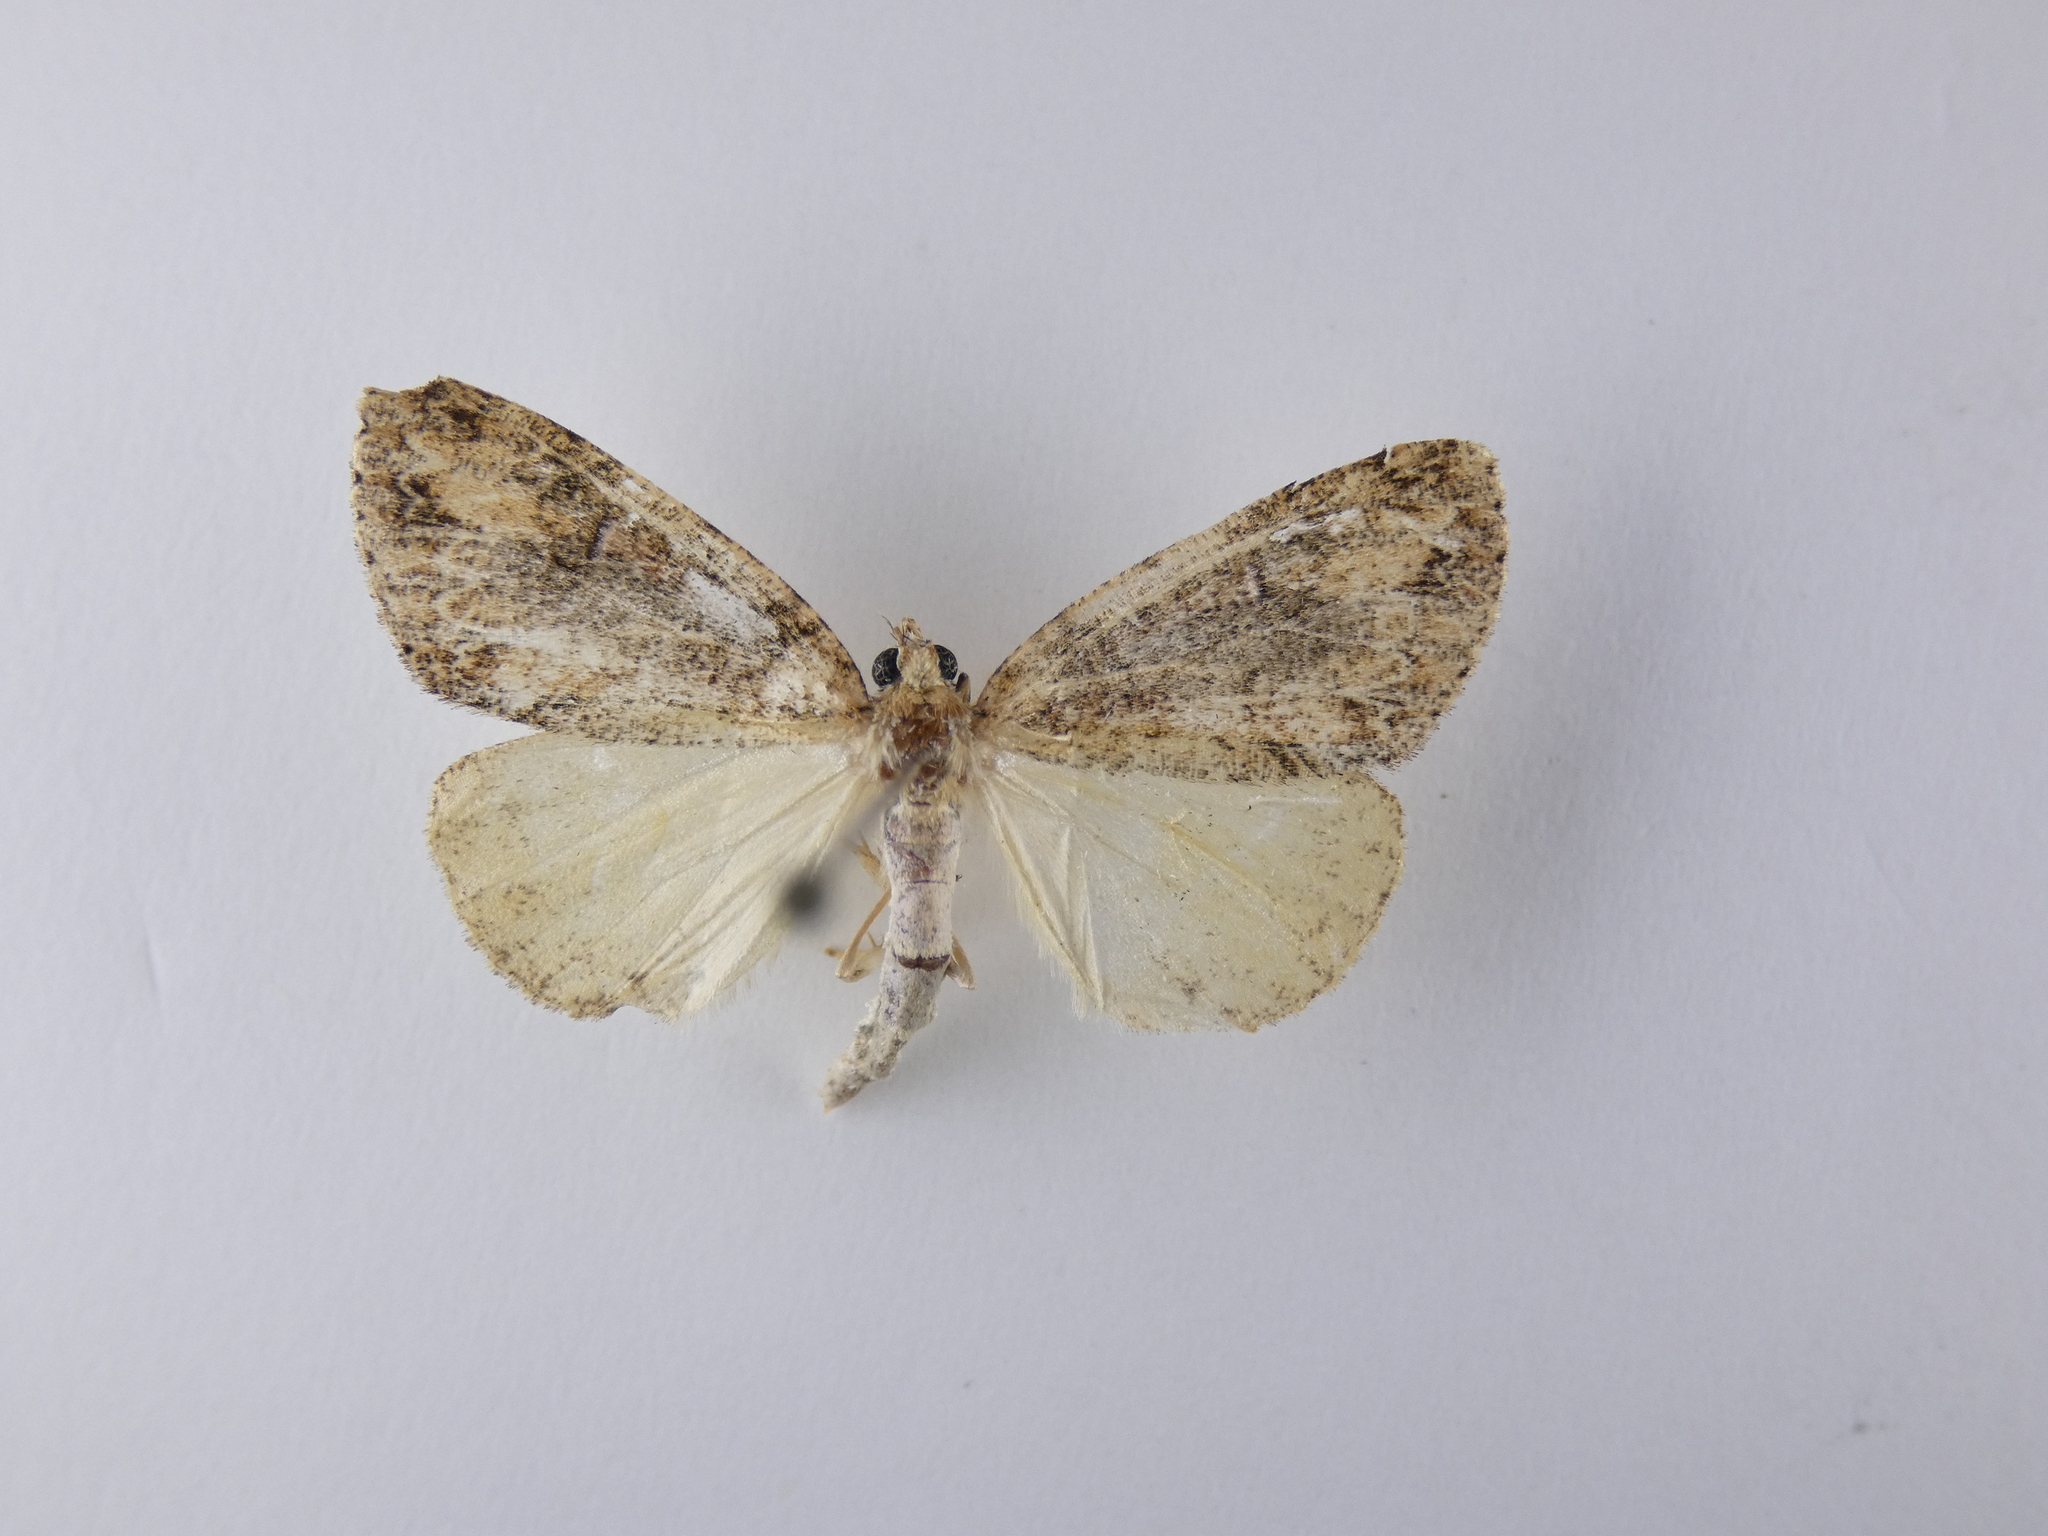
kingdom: Animalia
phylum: Arthropoda
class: Insecta
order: Lepidoptera
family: Geometridae
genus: Pseudocoremia
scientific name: Pseudocoremia suavis
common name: Common forest looper
